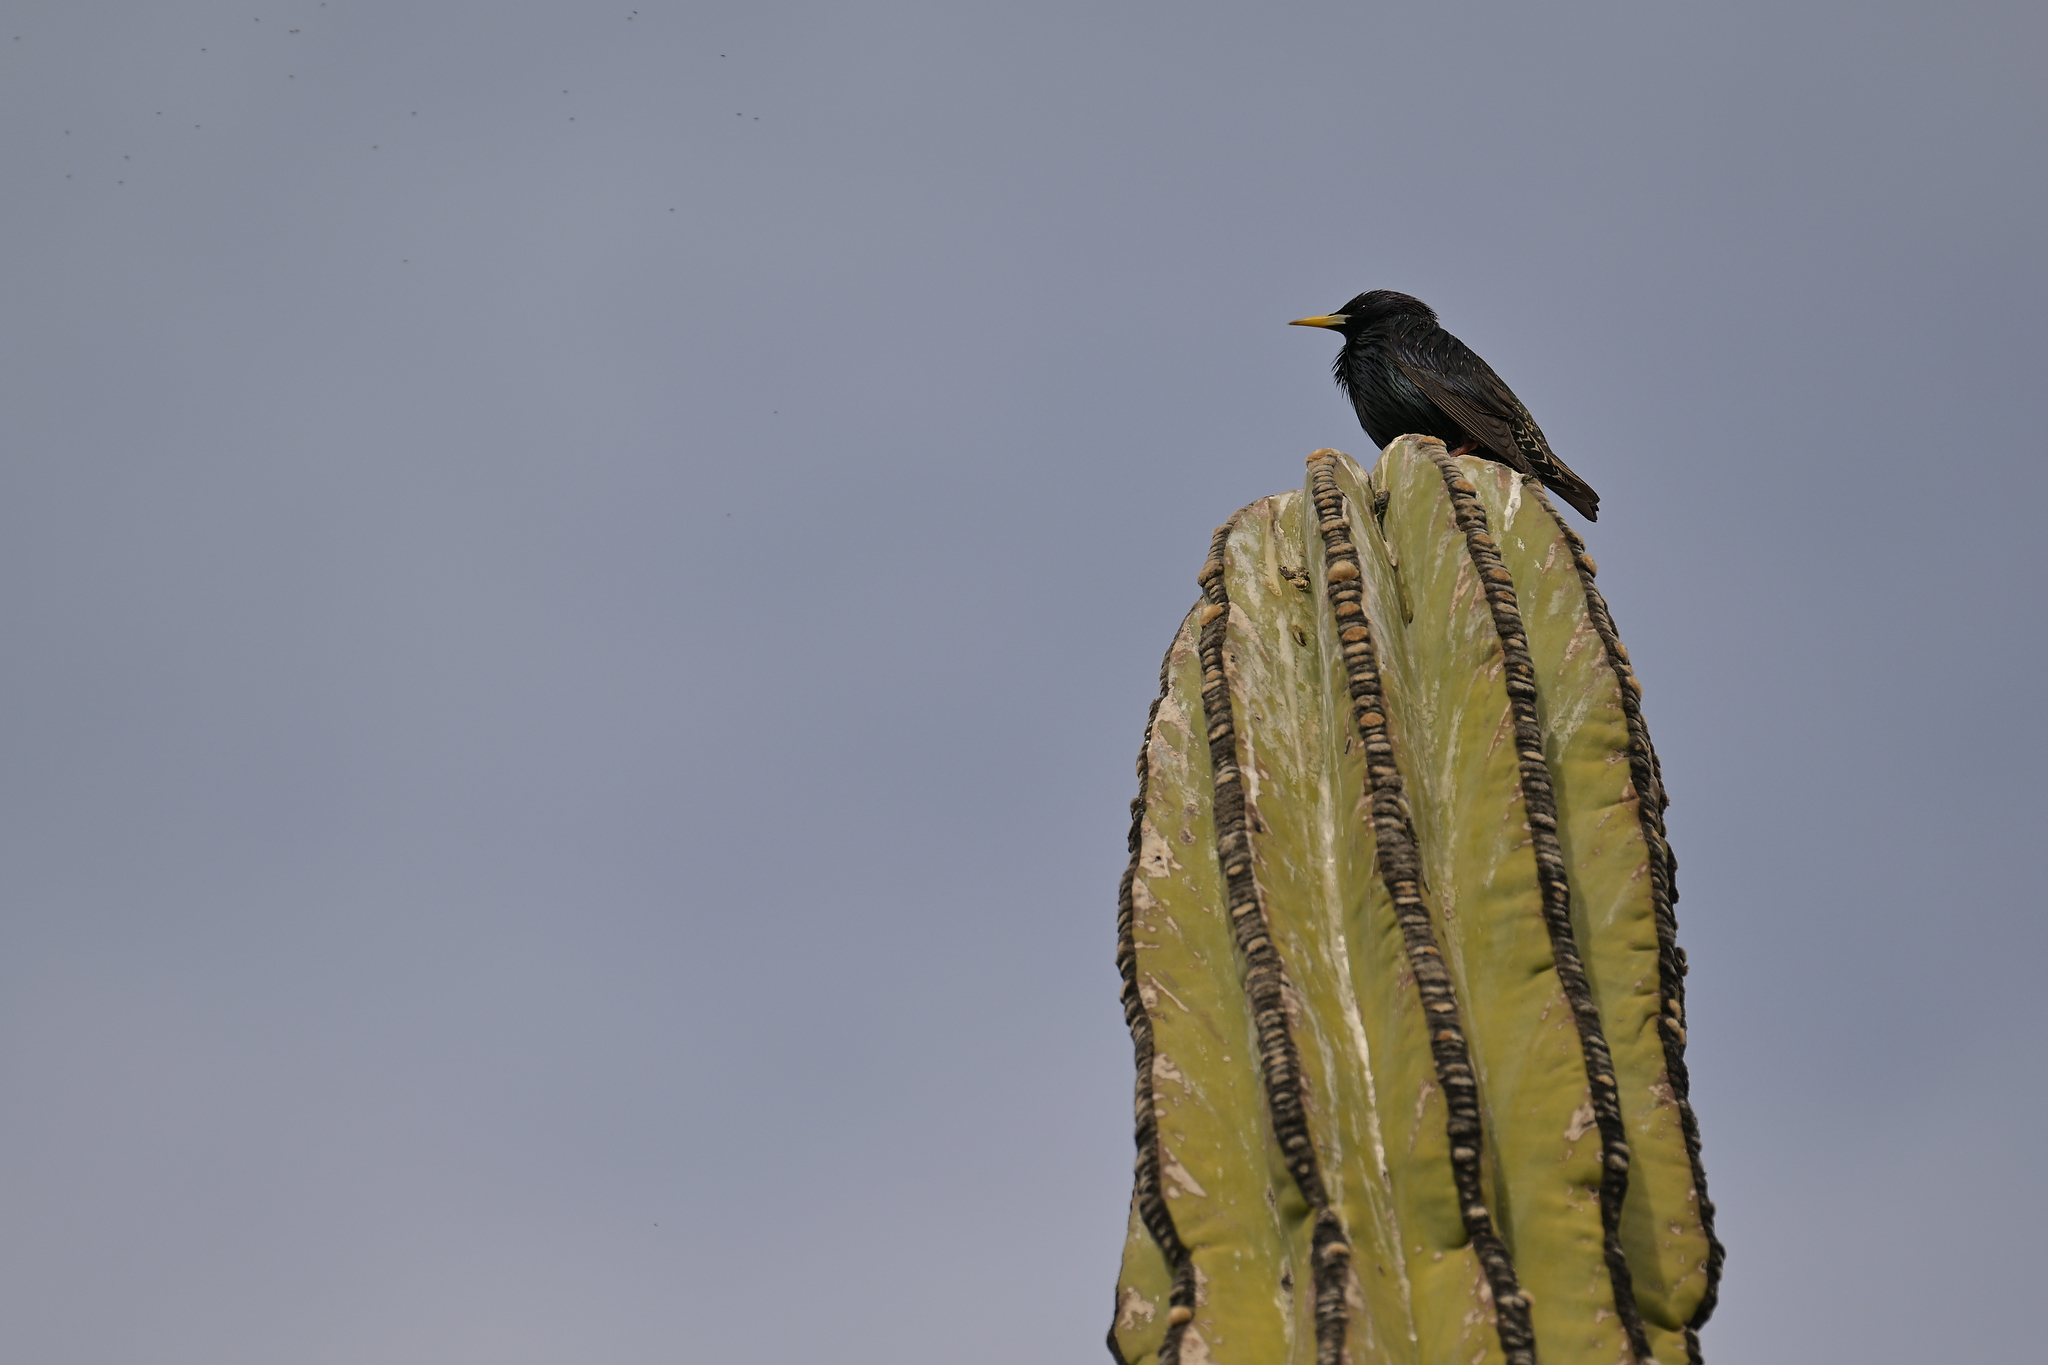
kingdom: Animalia
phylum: Chordata
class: Aves
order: Passeriformes
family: Sturnidae
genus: Sturnus
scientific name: Sturnus vulgaris
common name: Common starling
